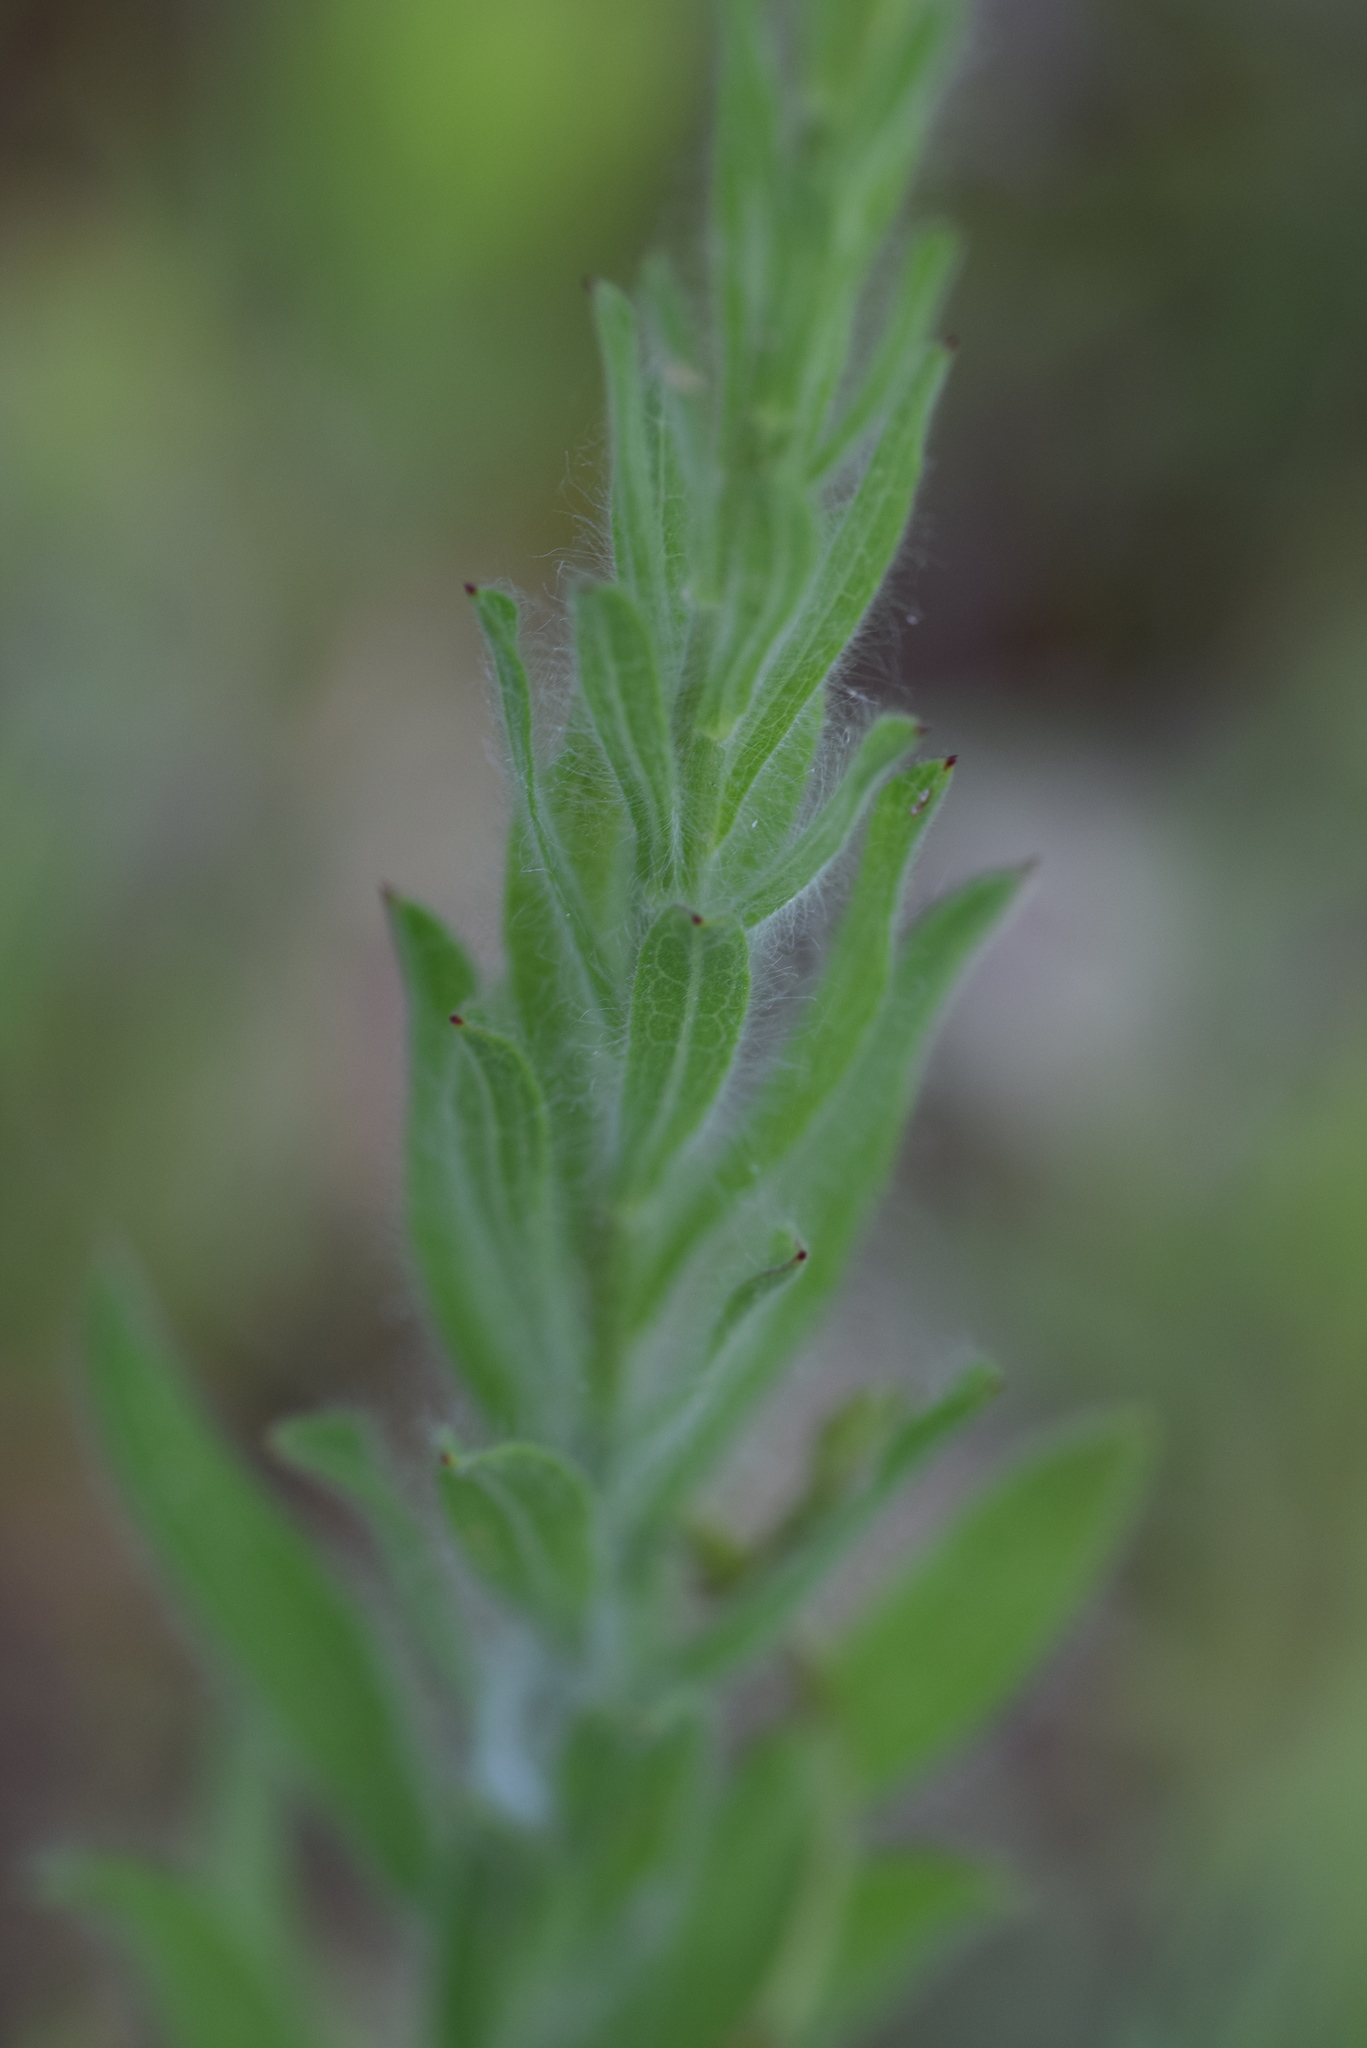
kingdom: Plantae
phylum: Tracheophyta
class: Magnoliopsida
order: Asterales
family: Asteraceae
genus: Bradburia
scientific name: Bradburia pilosa
